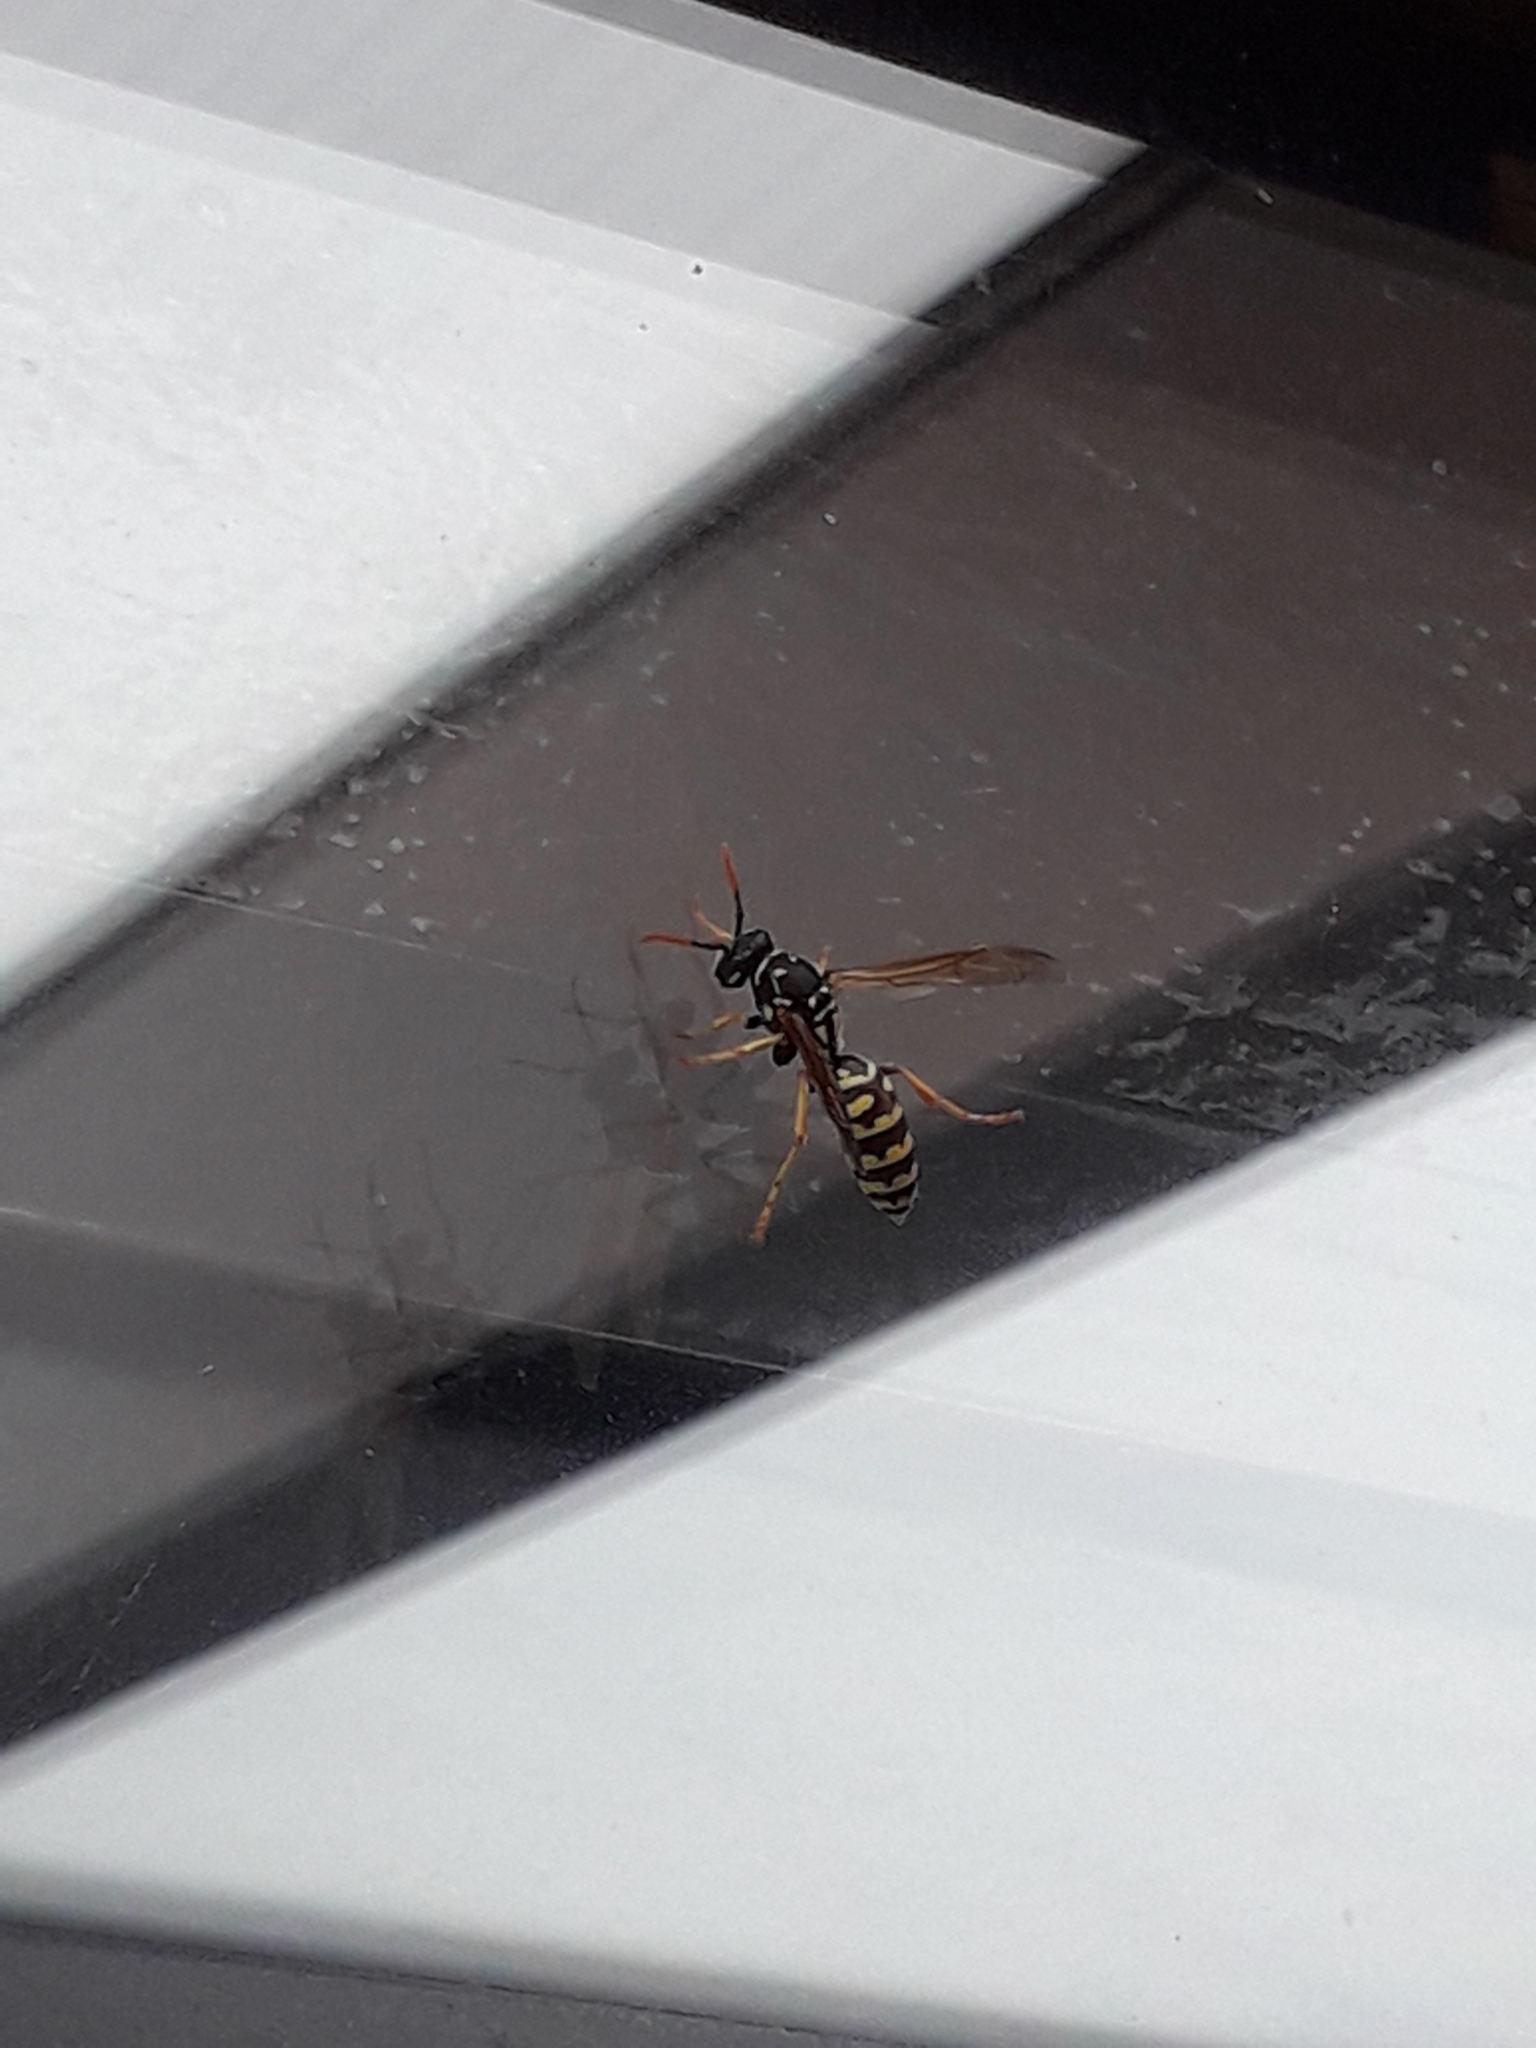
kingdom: Animalia
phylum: Arthropoda
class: Insecta
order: Hymenoptera
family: Eumenidae
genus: Polistes
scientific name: Polistes dominula
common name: Paper wasp
